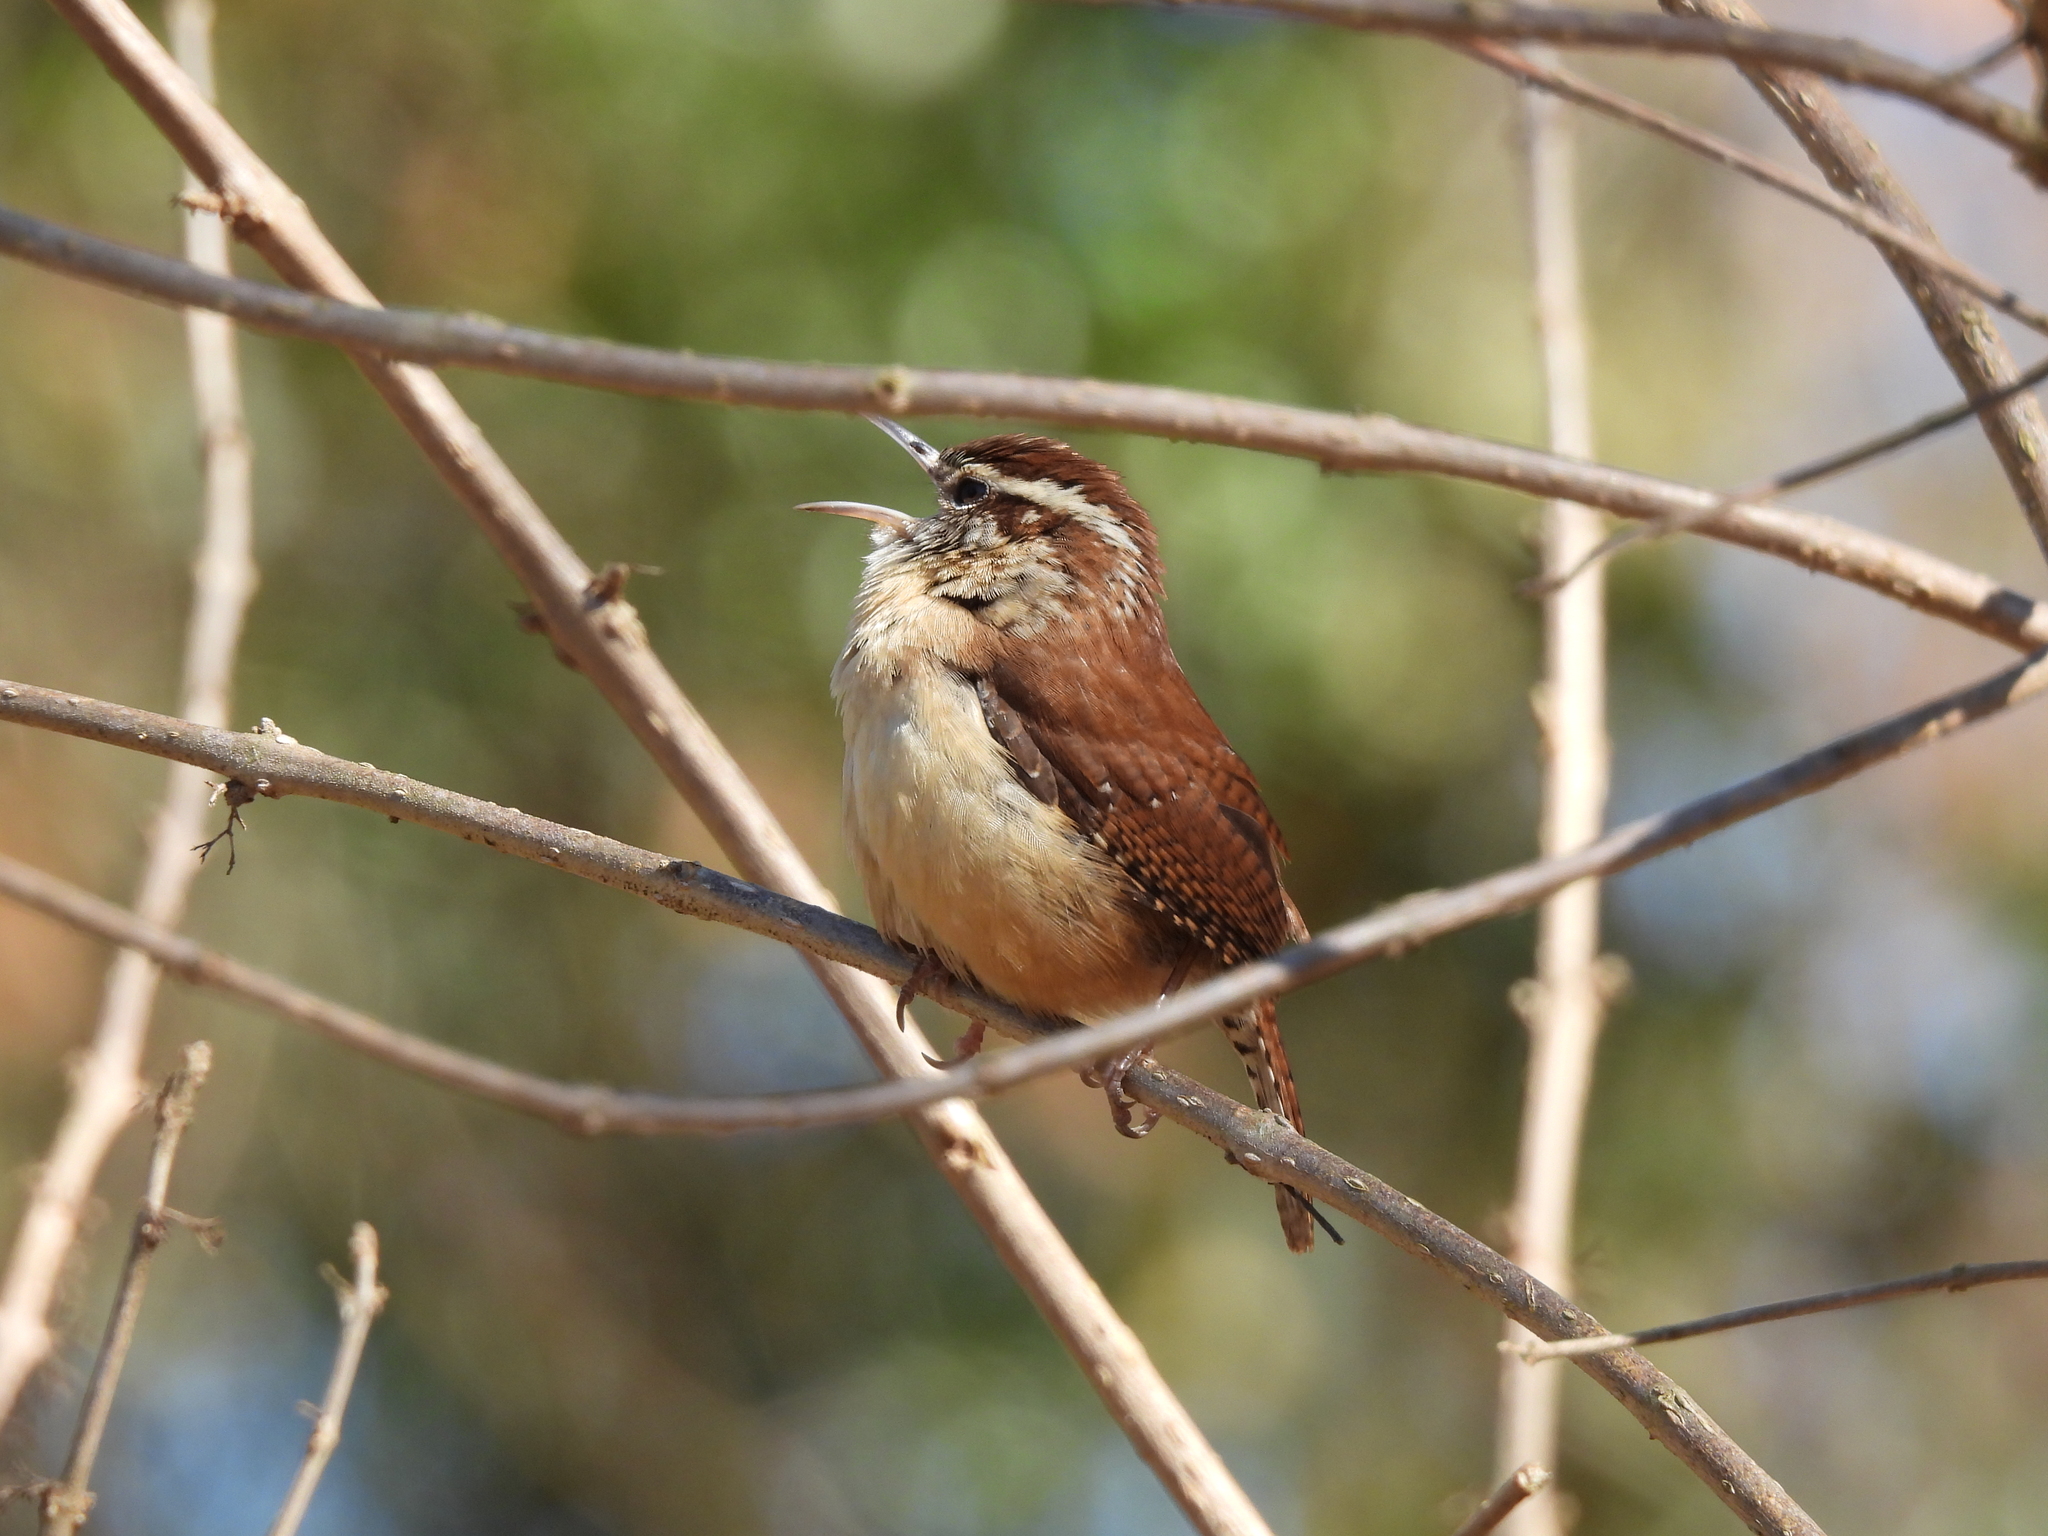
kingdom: Animalia
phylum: Chordata
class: Aves
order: Passeriformes
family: Troglodytidae
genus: Thryothorus
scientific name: Thryothorus ludovicianus
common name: Carolina wren
